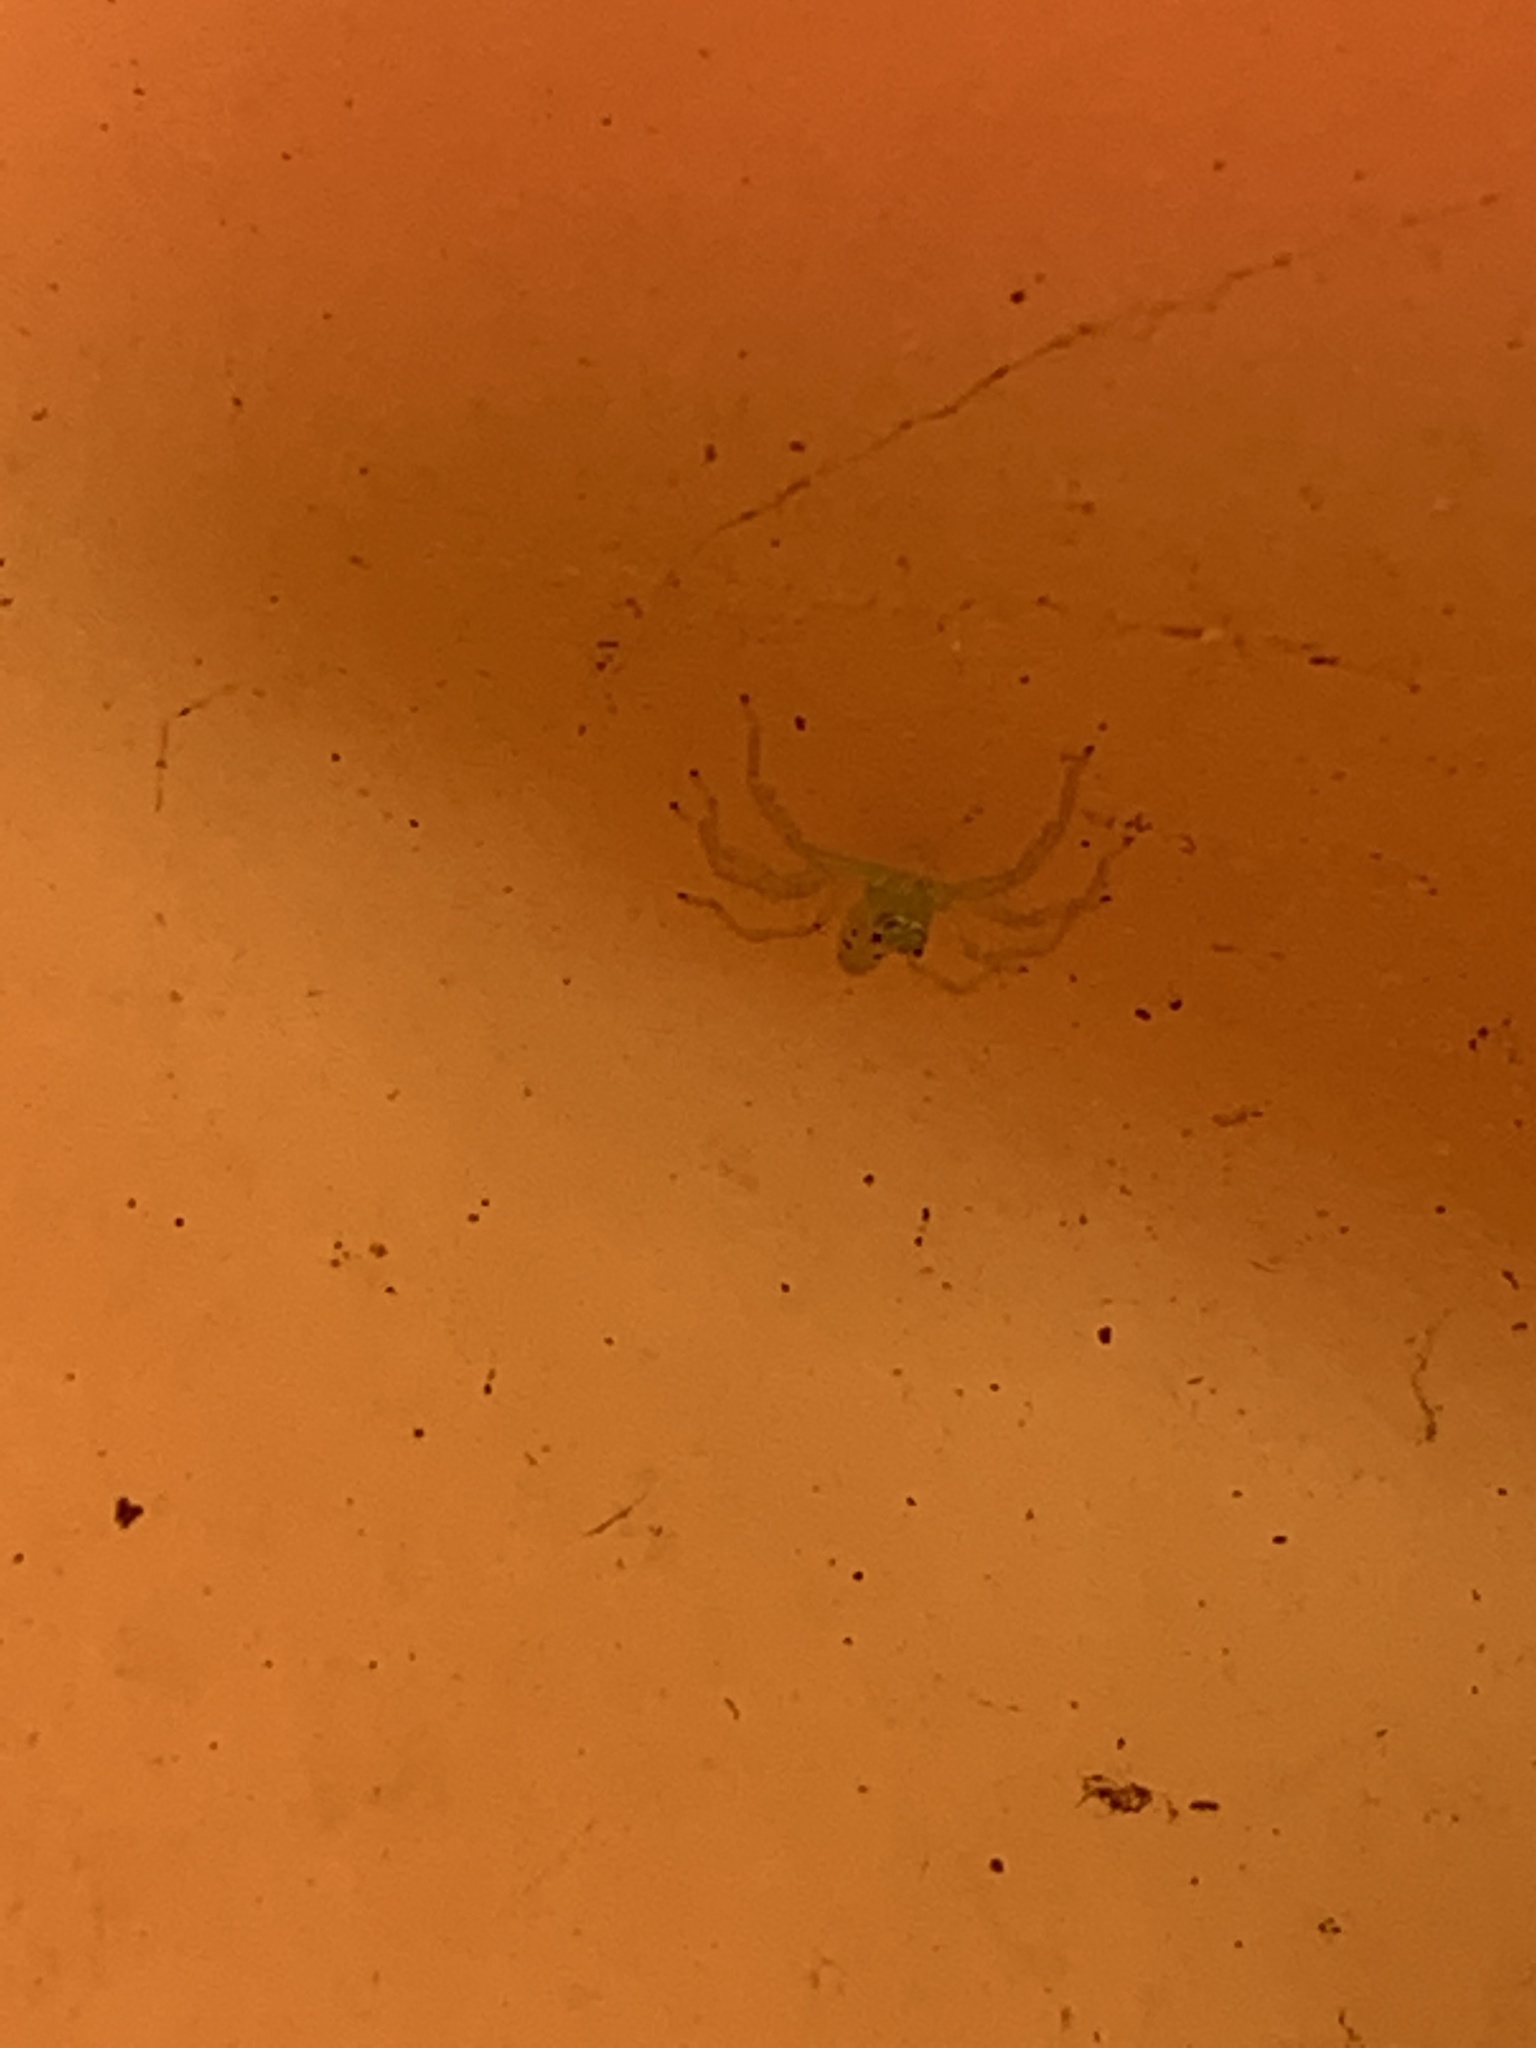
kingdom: Animalia
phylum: Arthropoda
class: Arachnida
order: Araneae
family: Salticidae
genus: Lyssomanes
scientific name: Lyssomanes viridis
